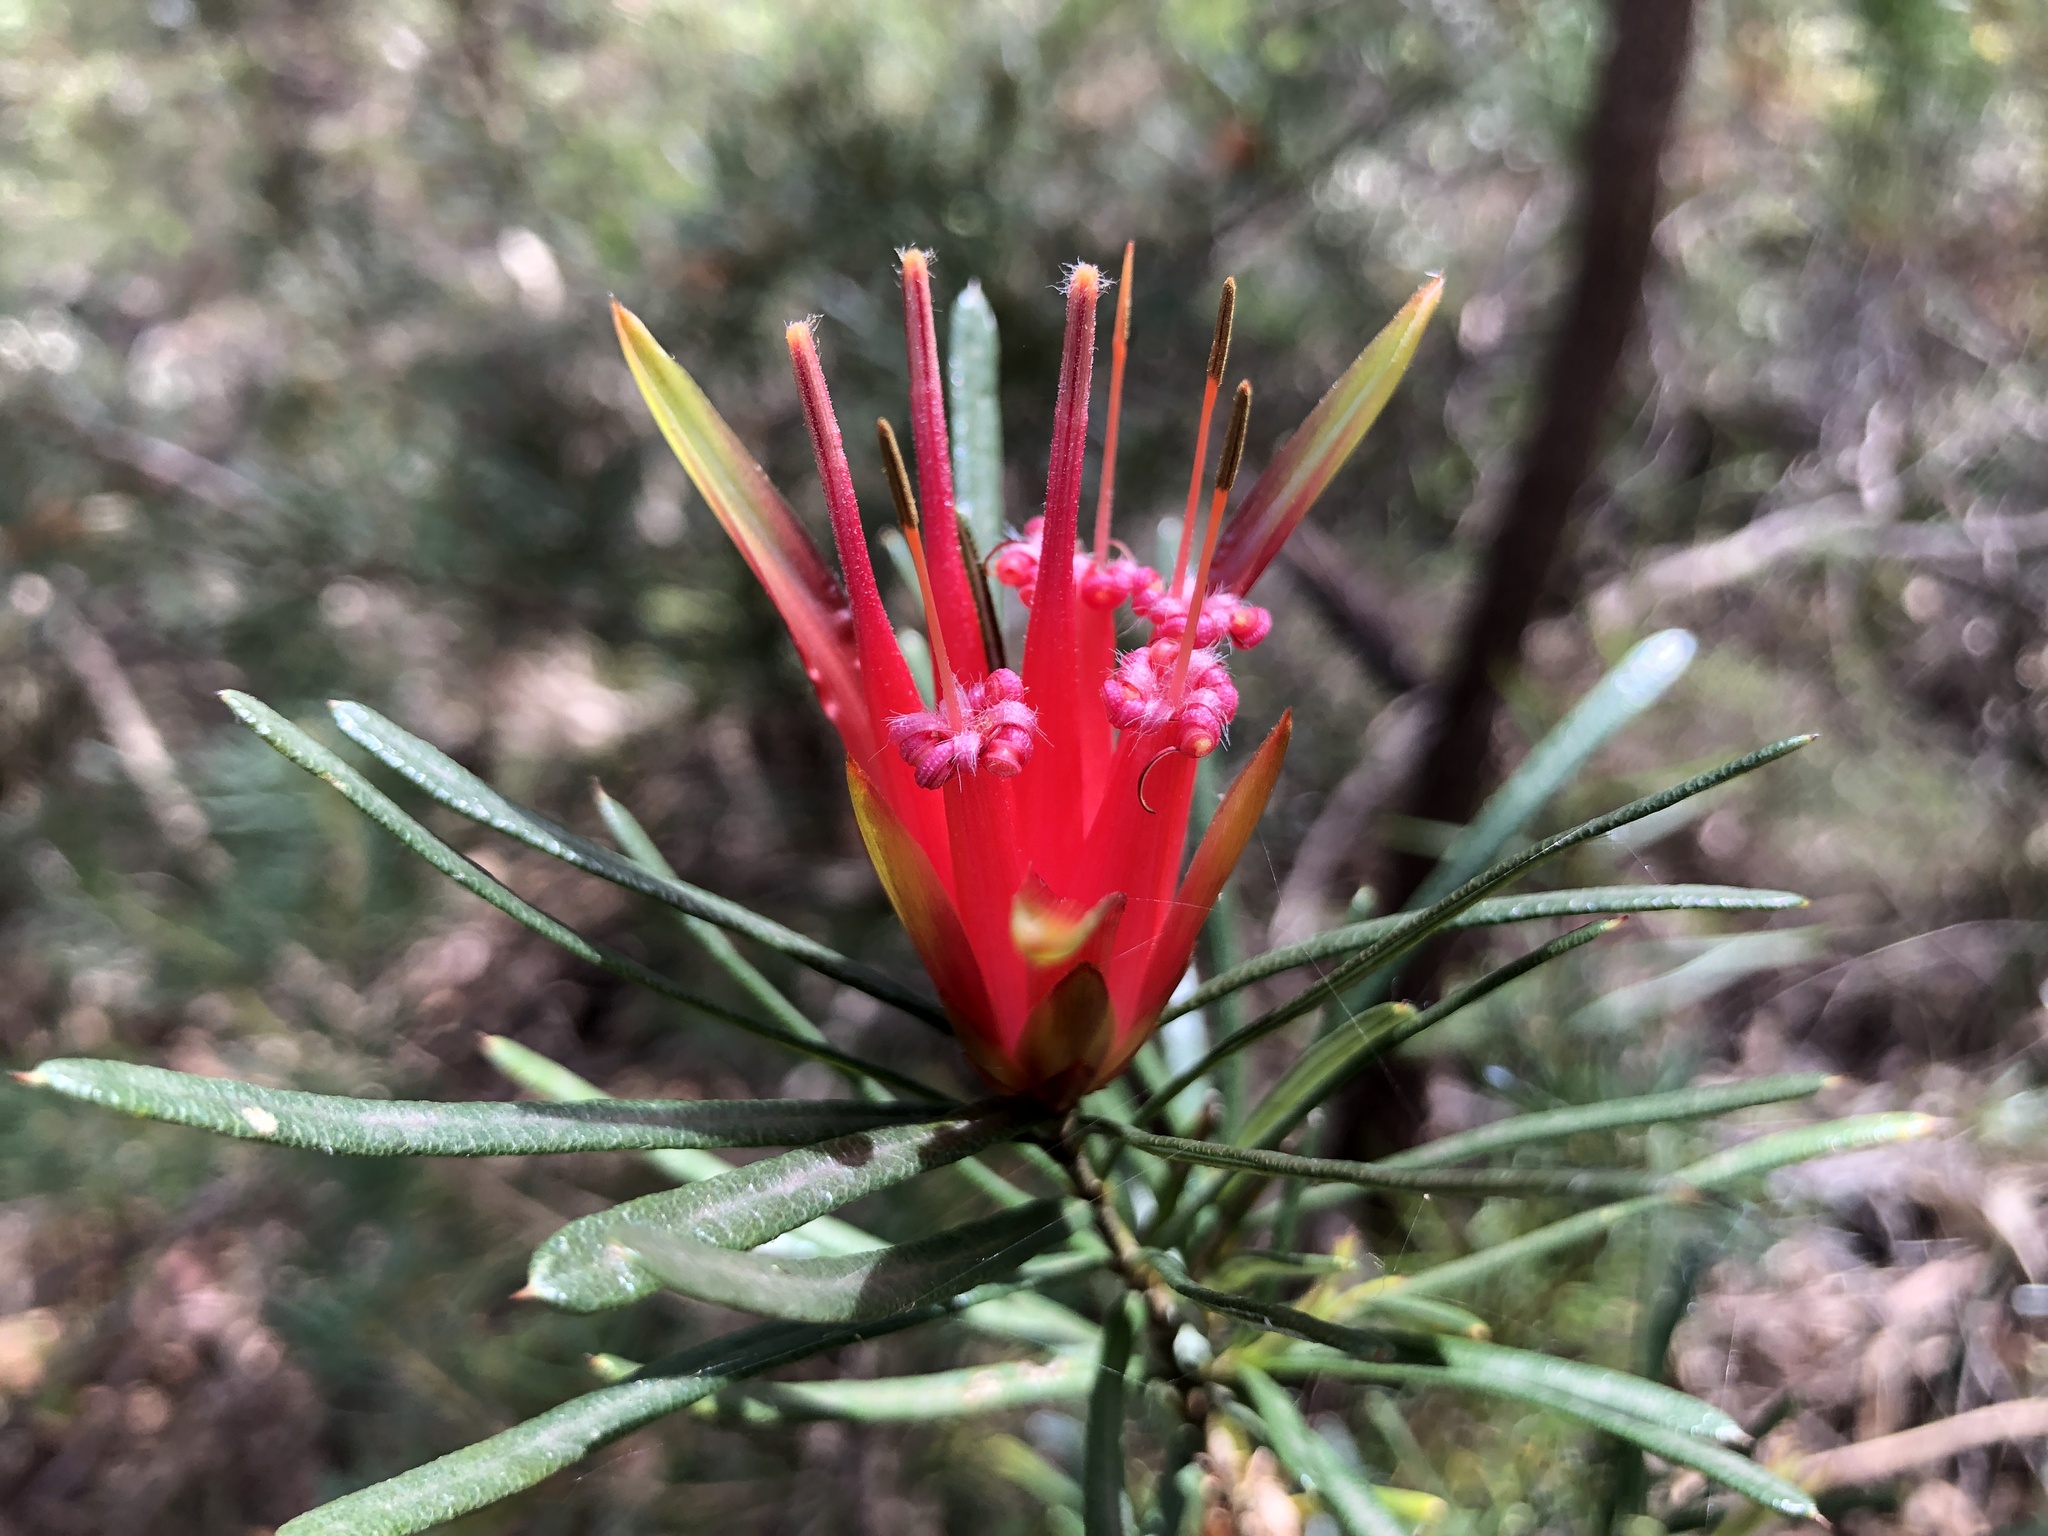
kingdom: Plantae
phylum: Tracheophyta
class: Magnoliopsida
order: Proteales
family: Proteaceae
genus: Lambertia
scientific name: Lambertia formosa
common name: Mountain-devil
